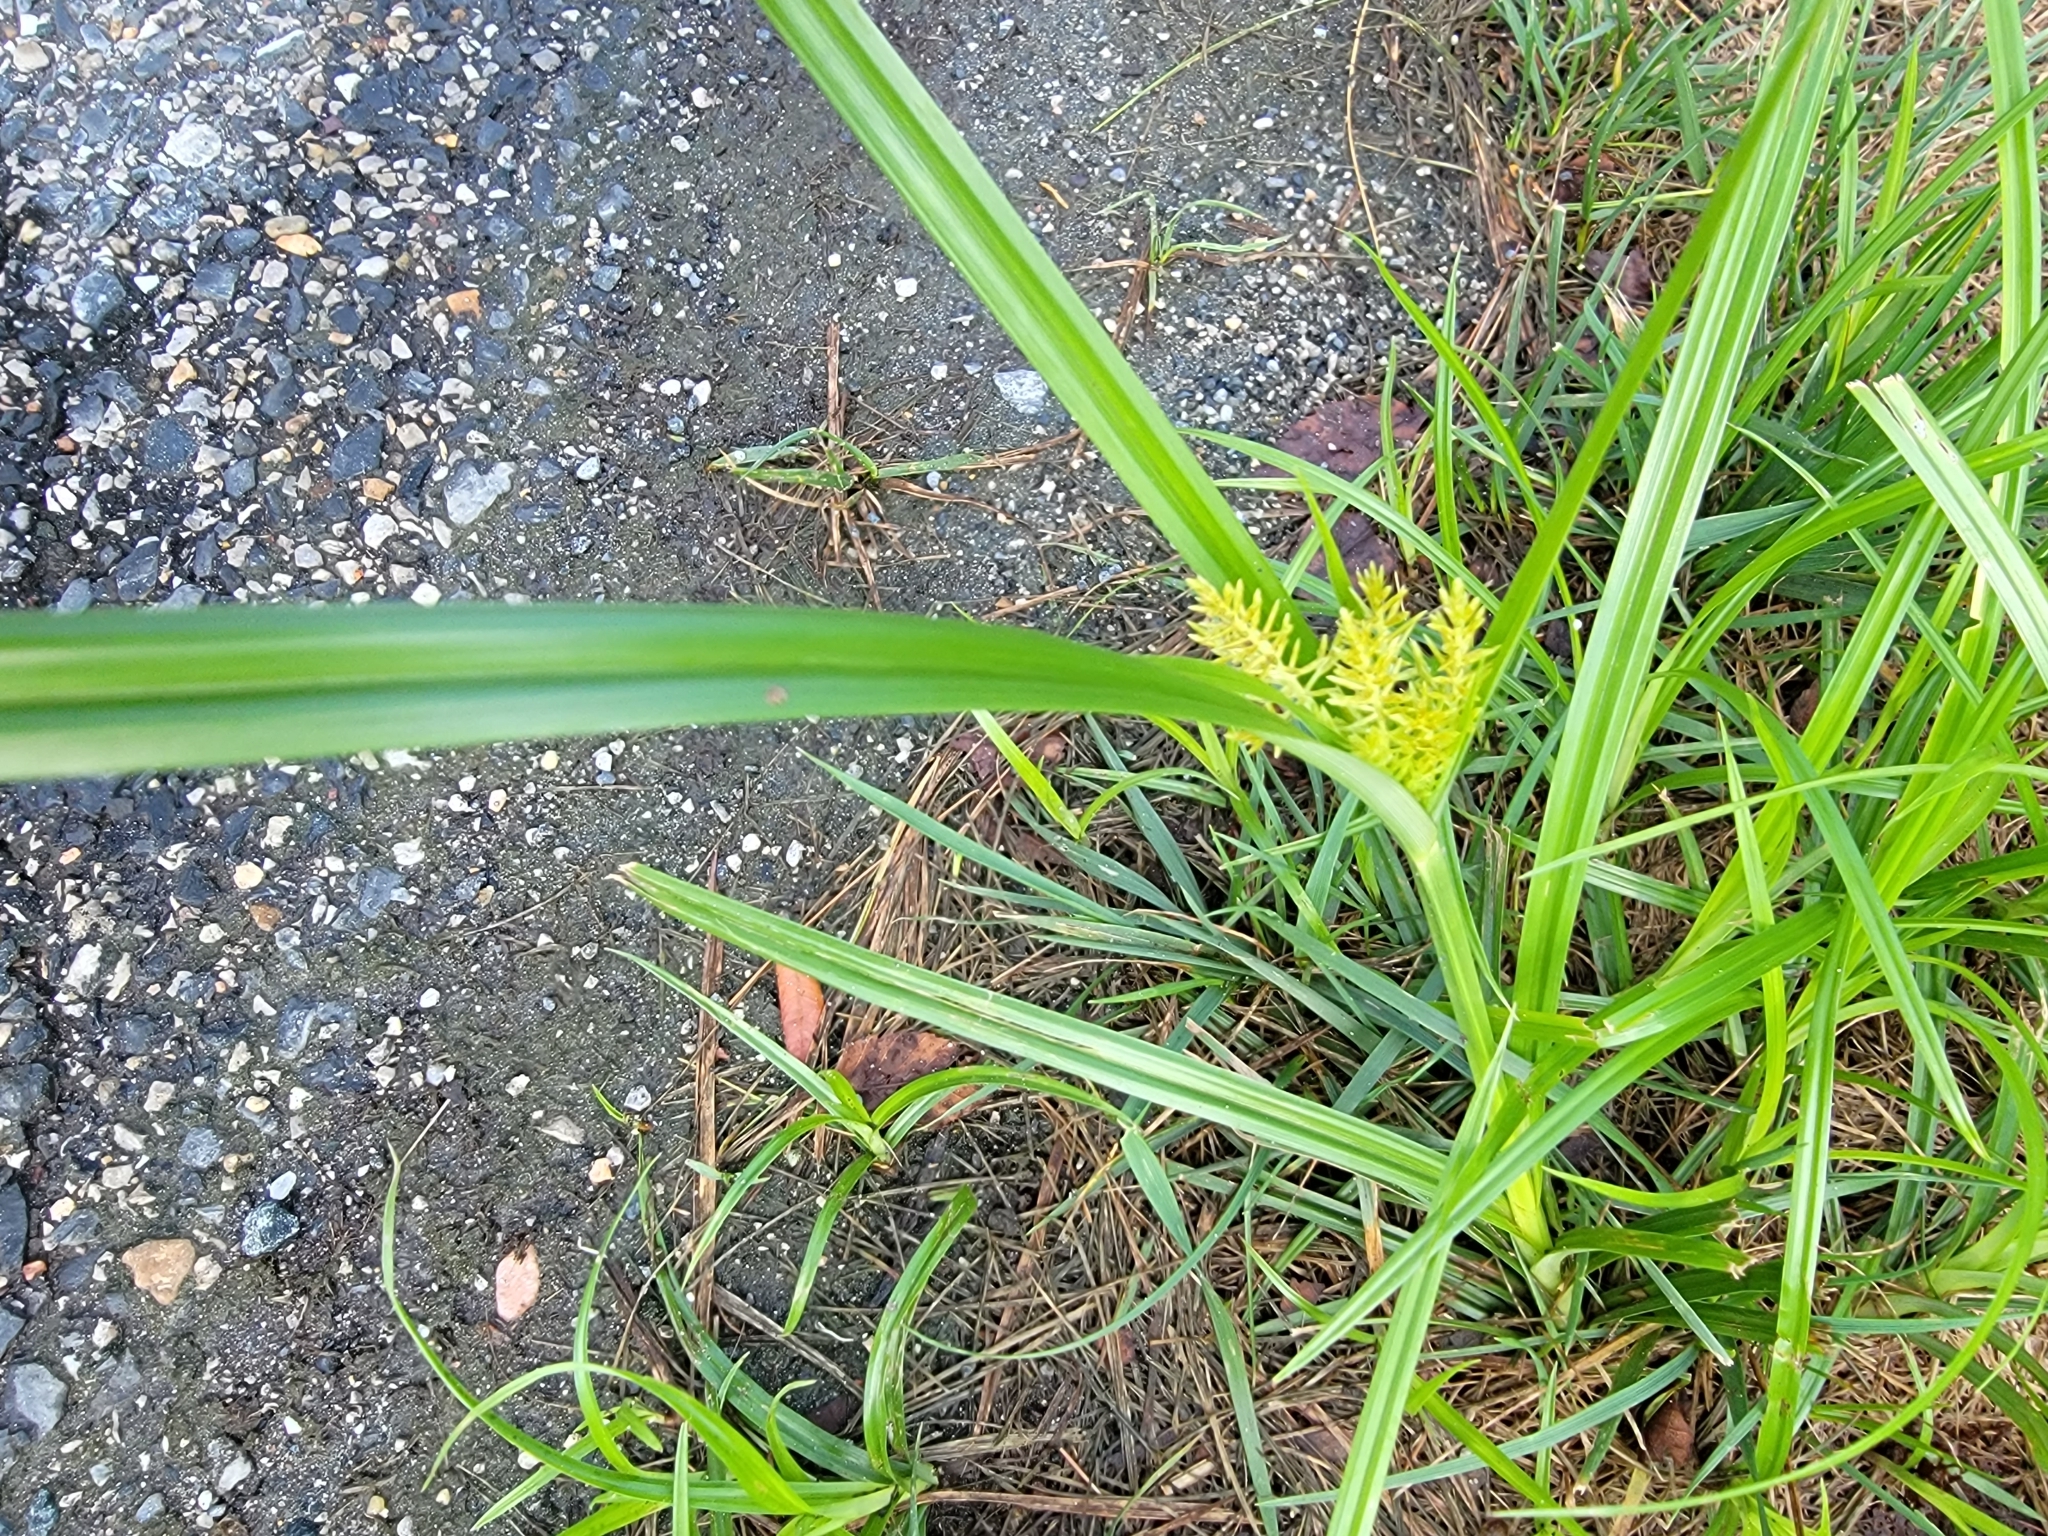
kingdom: Plantae
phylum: Tracheophyta
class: Liliopsida
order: Poales
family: Cyperaceae
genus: Cyperus
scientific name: Cyperus esculentus
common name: Yellow nutsedge
